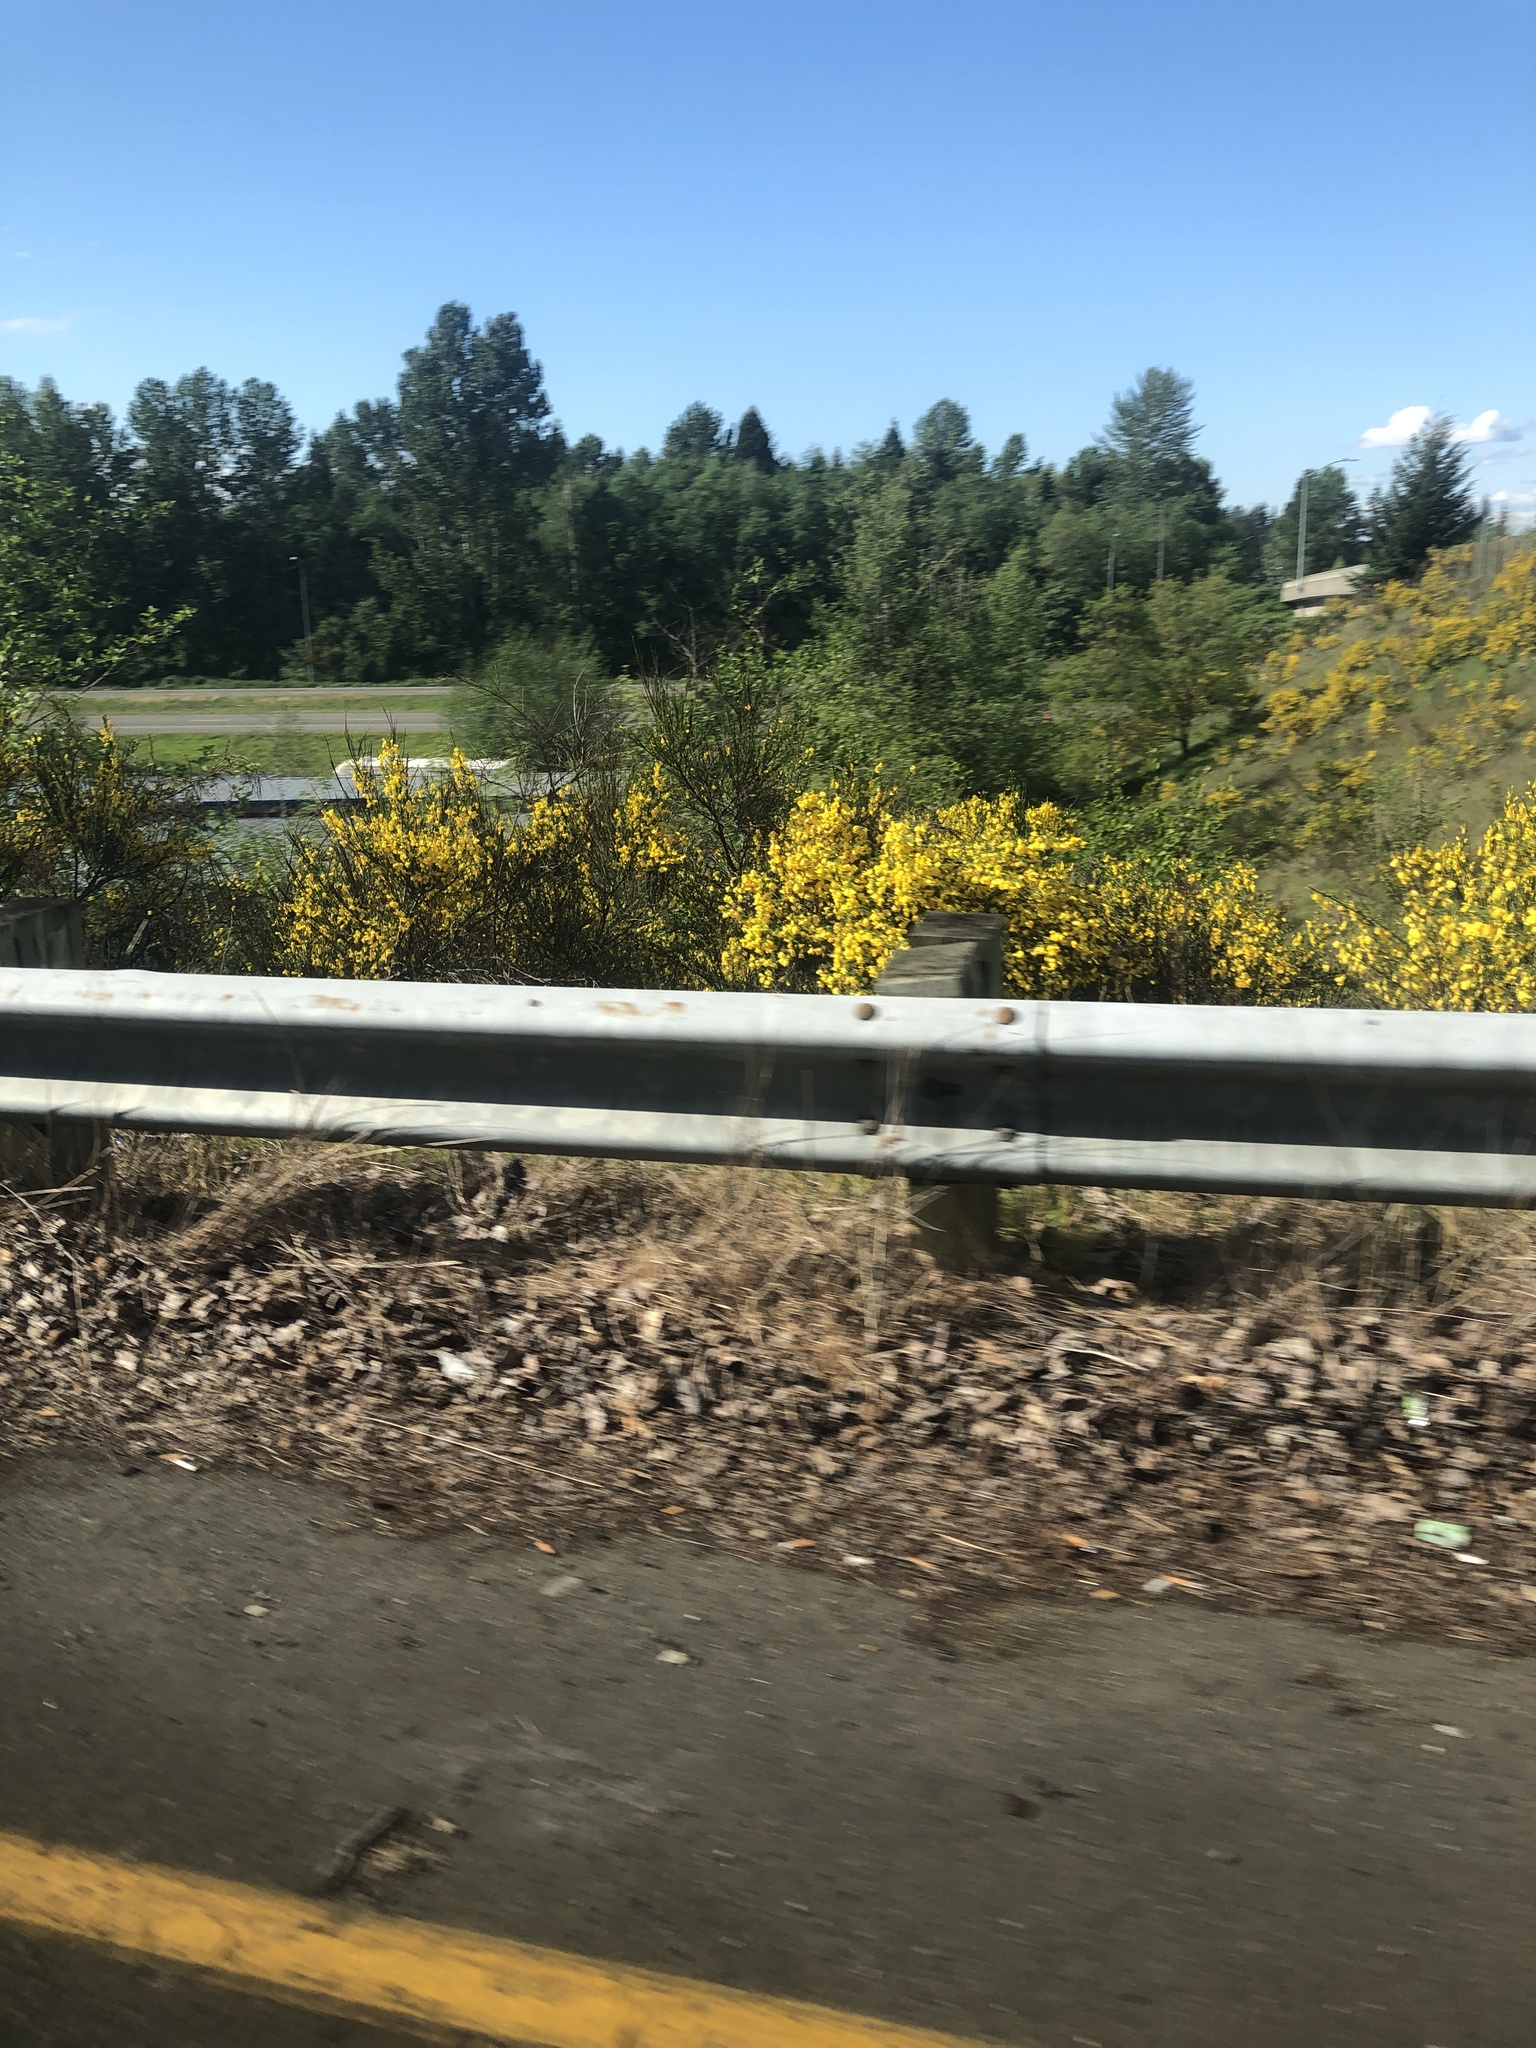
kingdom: Plantae
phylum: Tracheophyta
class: Magnoliopsida
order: Fabales
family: Fabaceae
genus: Cytisus
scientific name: Cytisus scoparius
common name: Scotch broom
